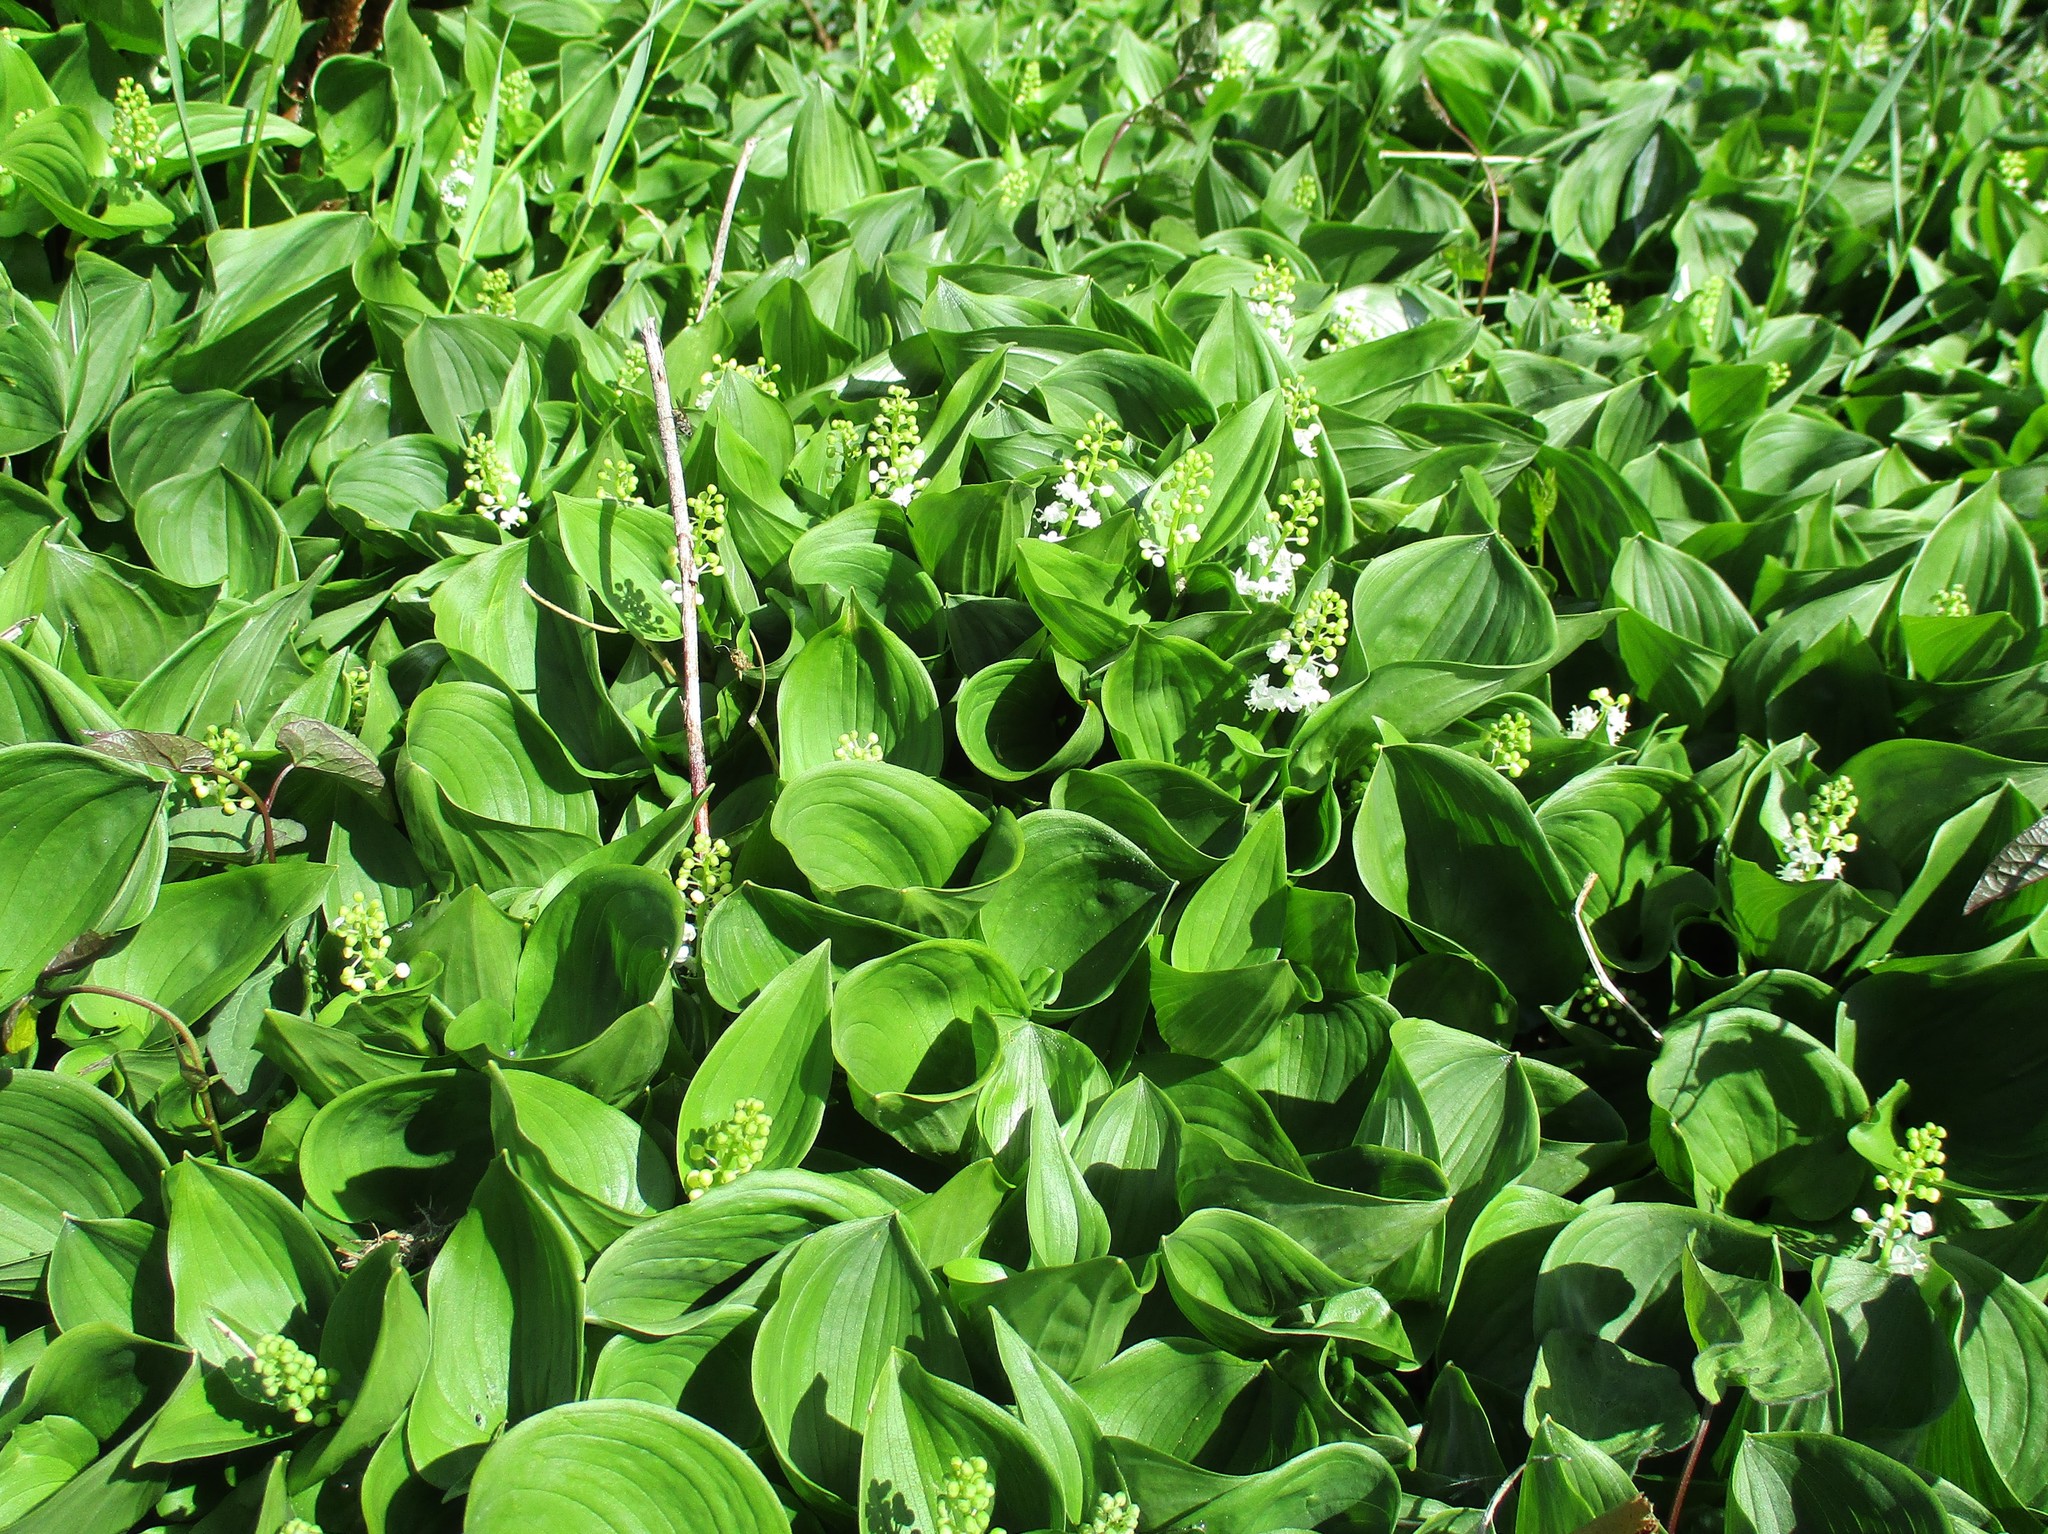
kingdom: Plantae
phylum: Tracheophyta
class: Liliopsida
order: Asparagales
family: Asparagaceae
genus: Maianthemum
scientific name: Maianthemum dilatatum
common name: False lily-of-the-valley
